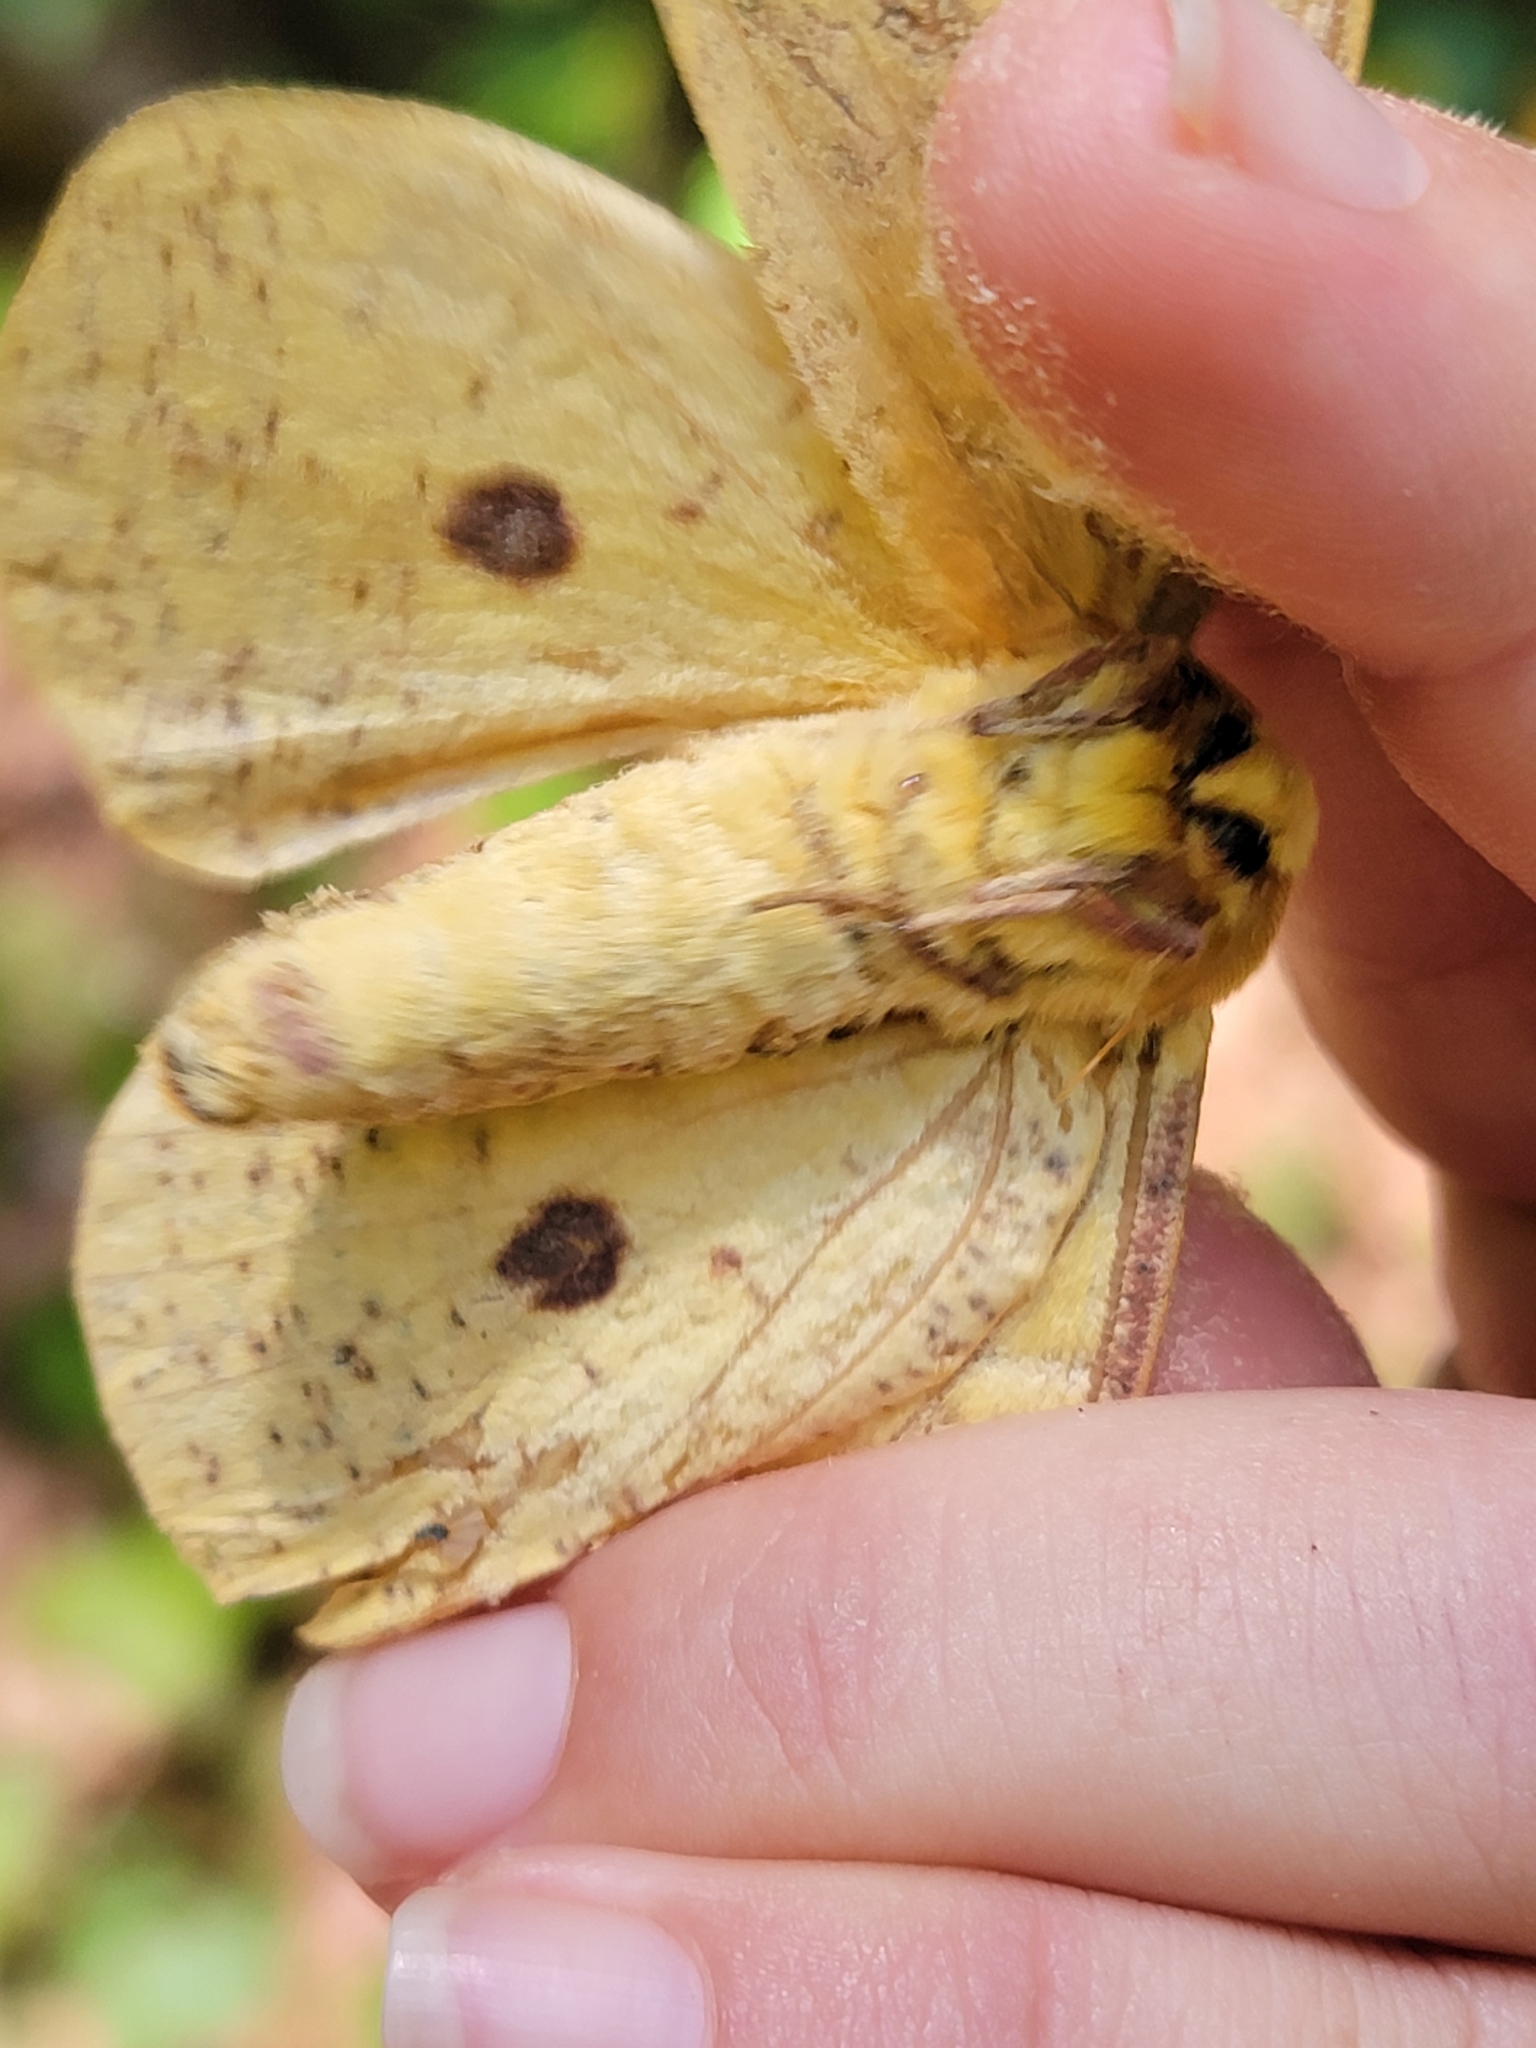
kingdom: Animalia
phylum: Arthropoda
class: Insecta
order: Lepidoptera
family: Saturniidae
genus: Eacles
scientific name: Eacles imperialis
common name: Imperial moth
